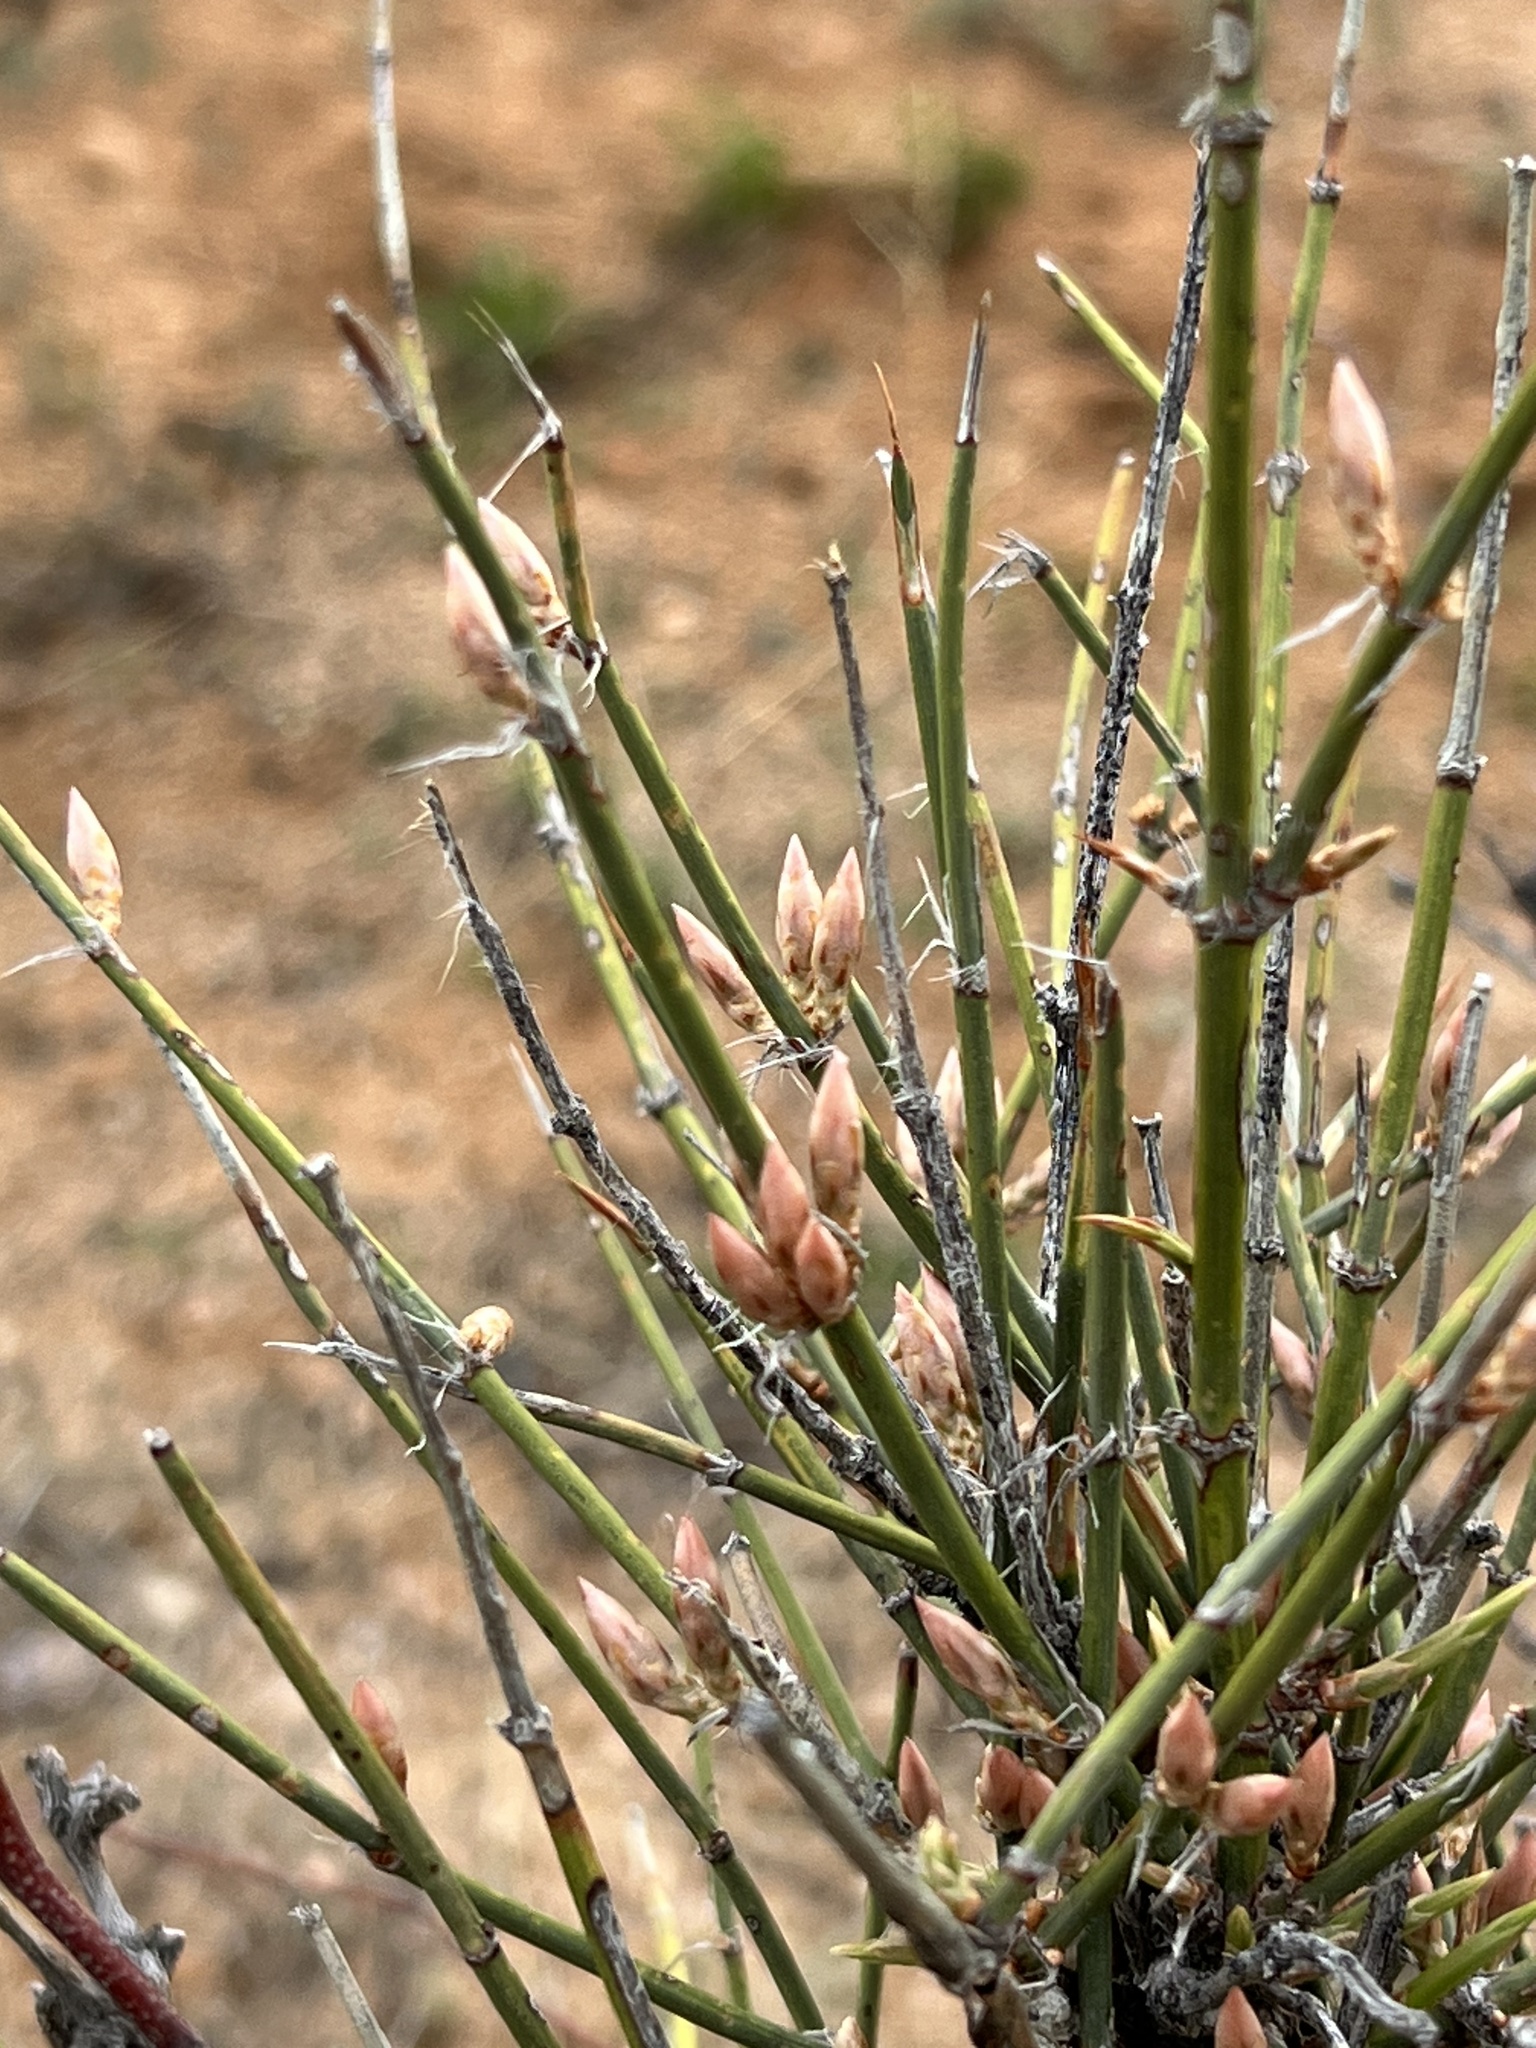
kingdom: Plantae
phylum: Tracheophyta
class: Gnetopsida
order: Ephedrales
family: Ephedraceae
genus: Ephedra
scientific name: Ephedra trifurca
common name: Mexican-tea
